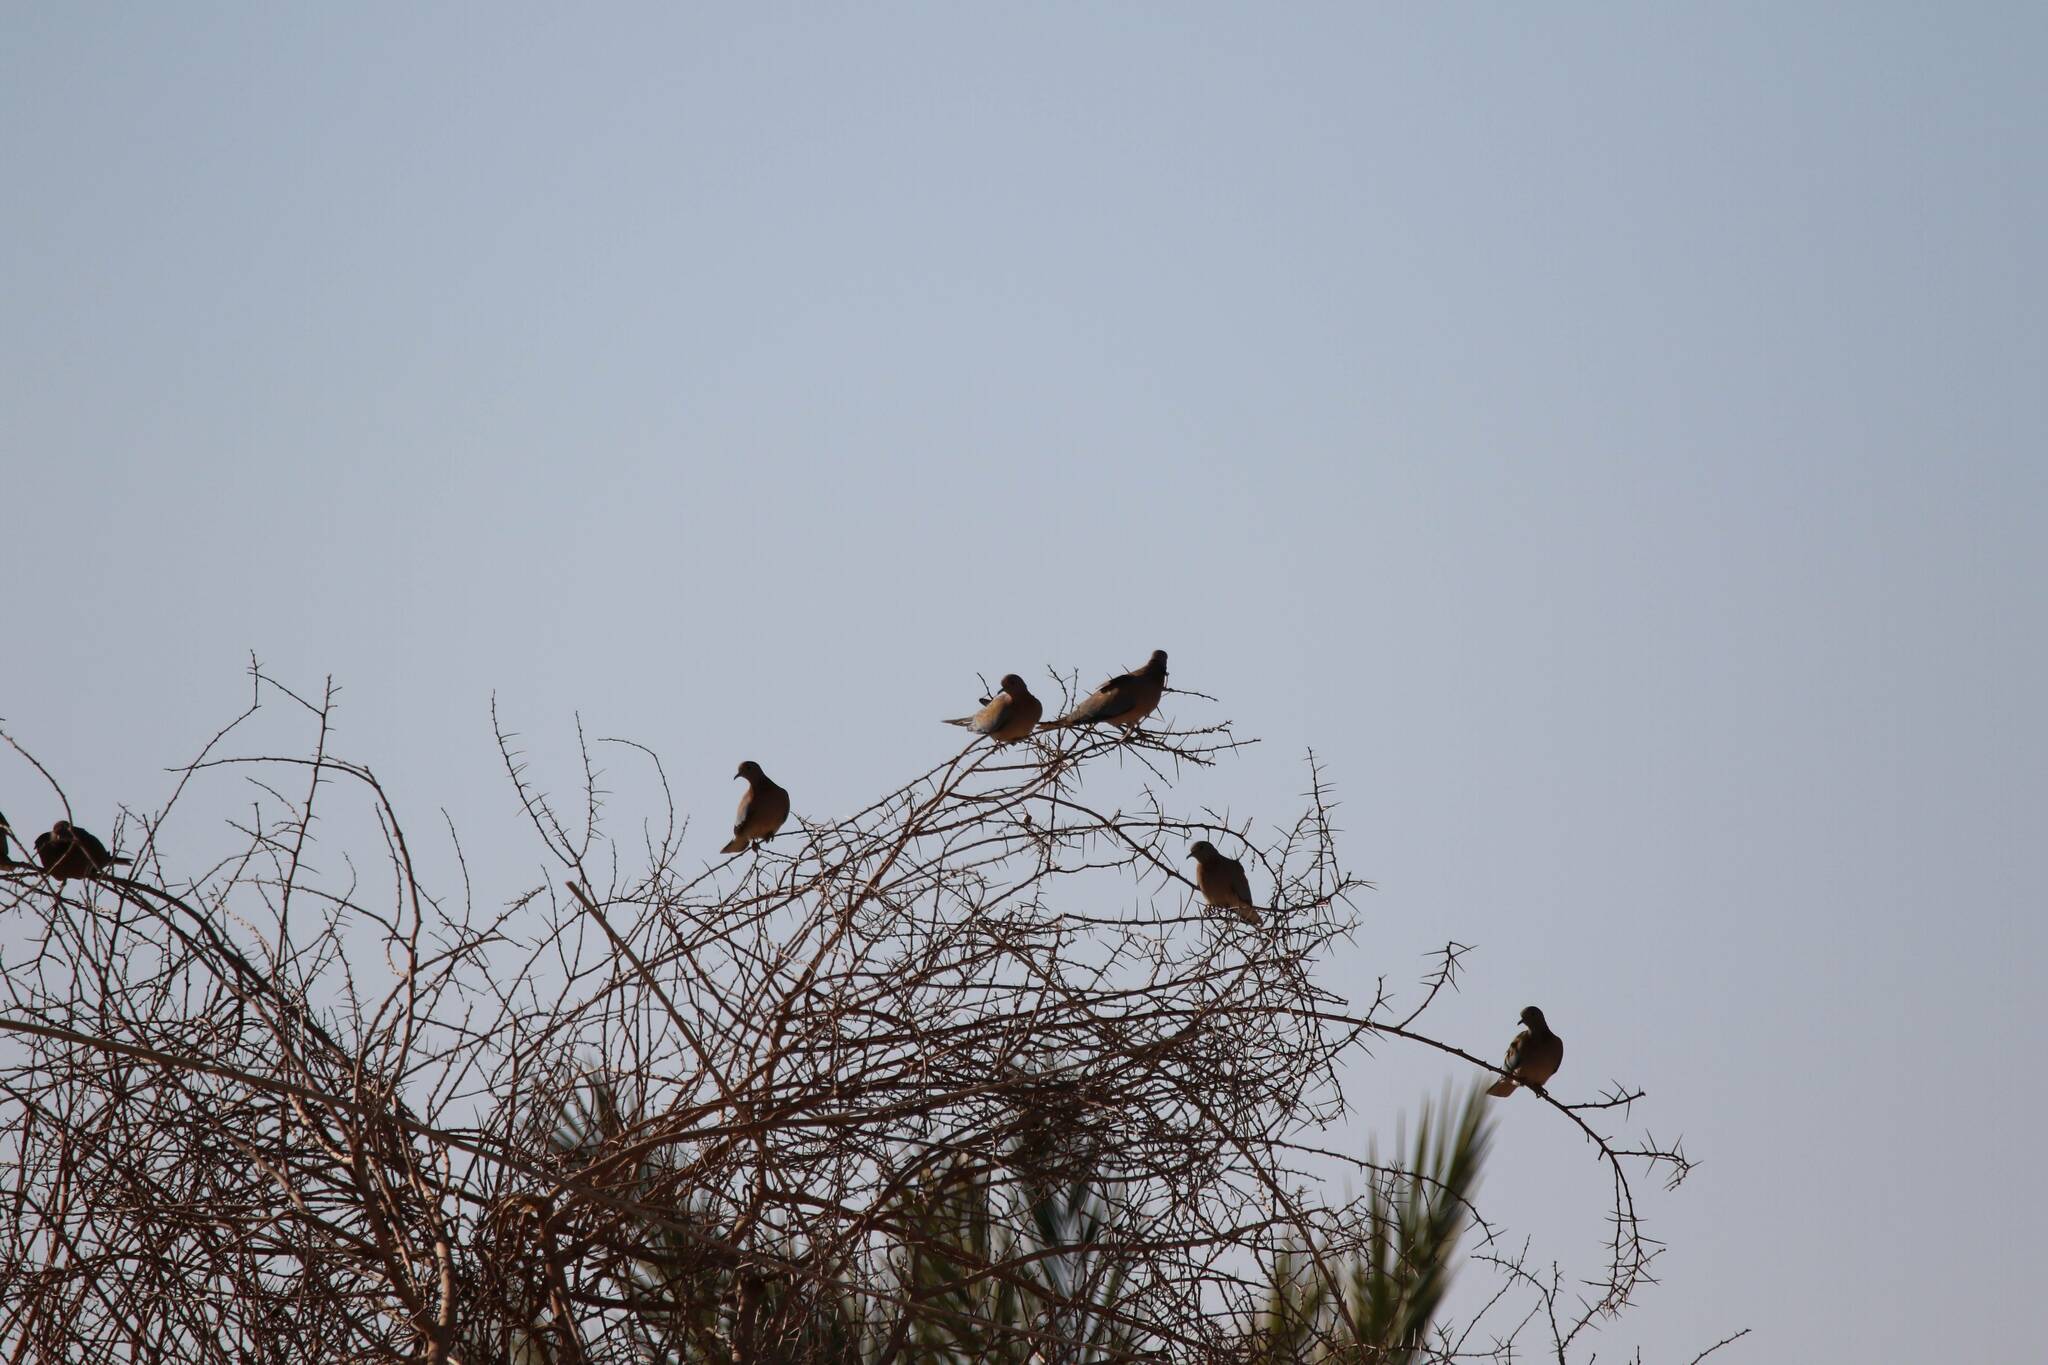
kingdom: Animalia
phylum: Chordata
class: Aves
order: Columbiformes
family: Columbidae
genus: Spilopelia
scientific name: Spilopelia senegalensis
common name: Laughing dove
